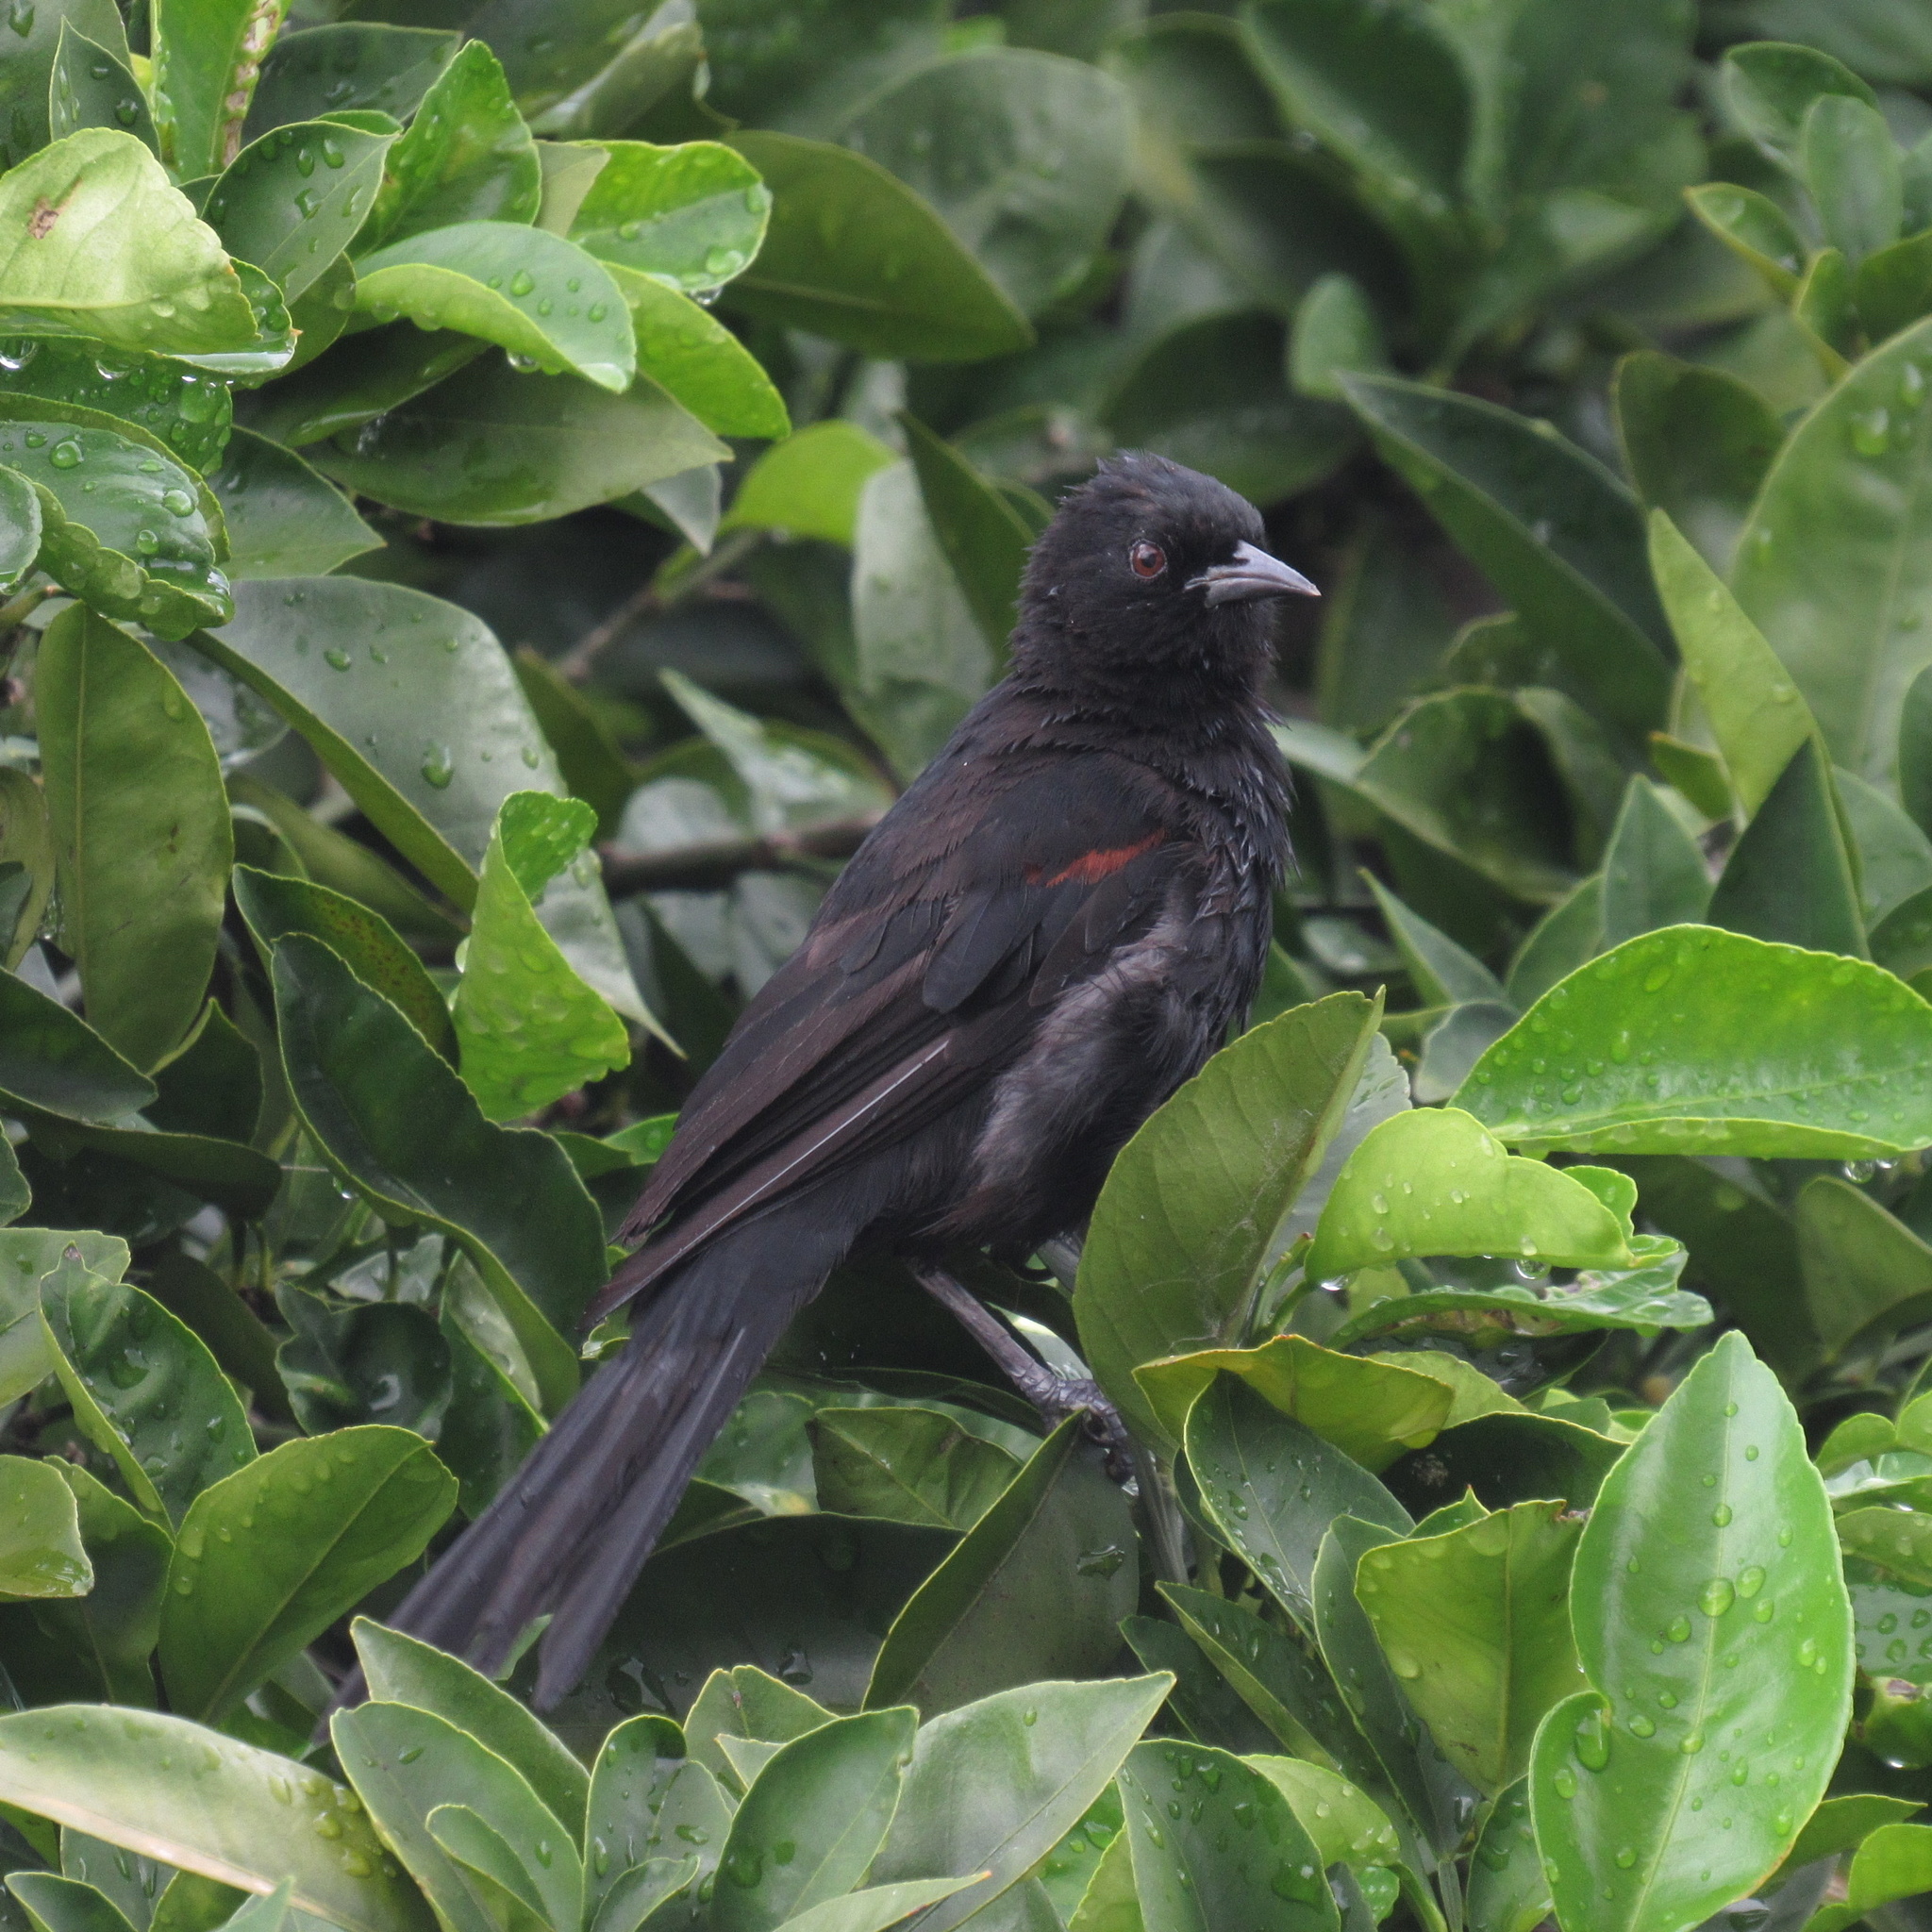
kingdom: Animalia
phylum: Chordata
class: Aves
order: Passeriformes
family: Icteridae
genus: Icterus
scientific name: Icterus cayanensis
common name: Epaulet oriole
